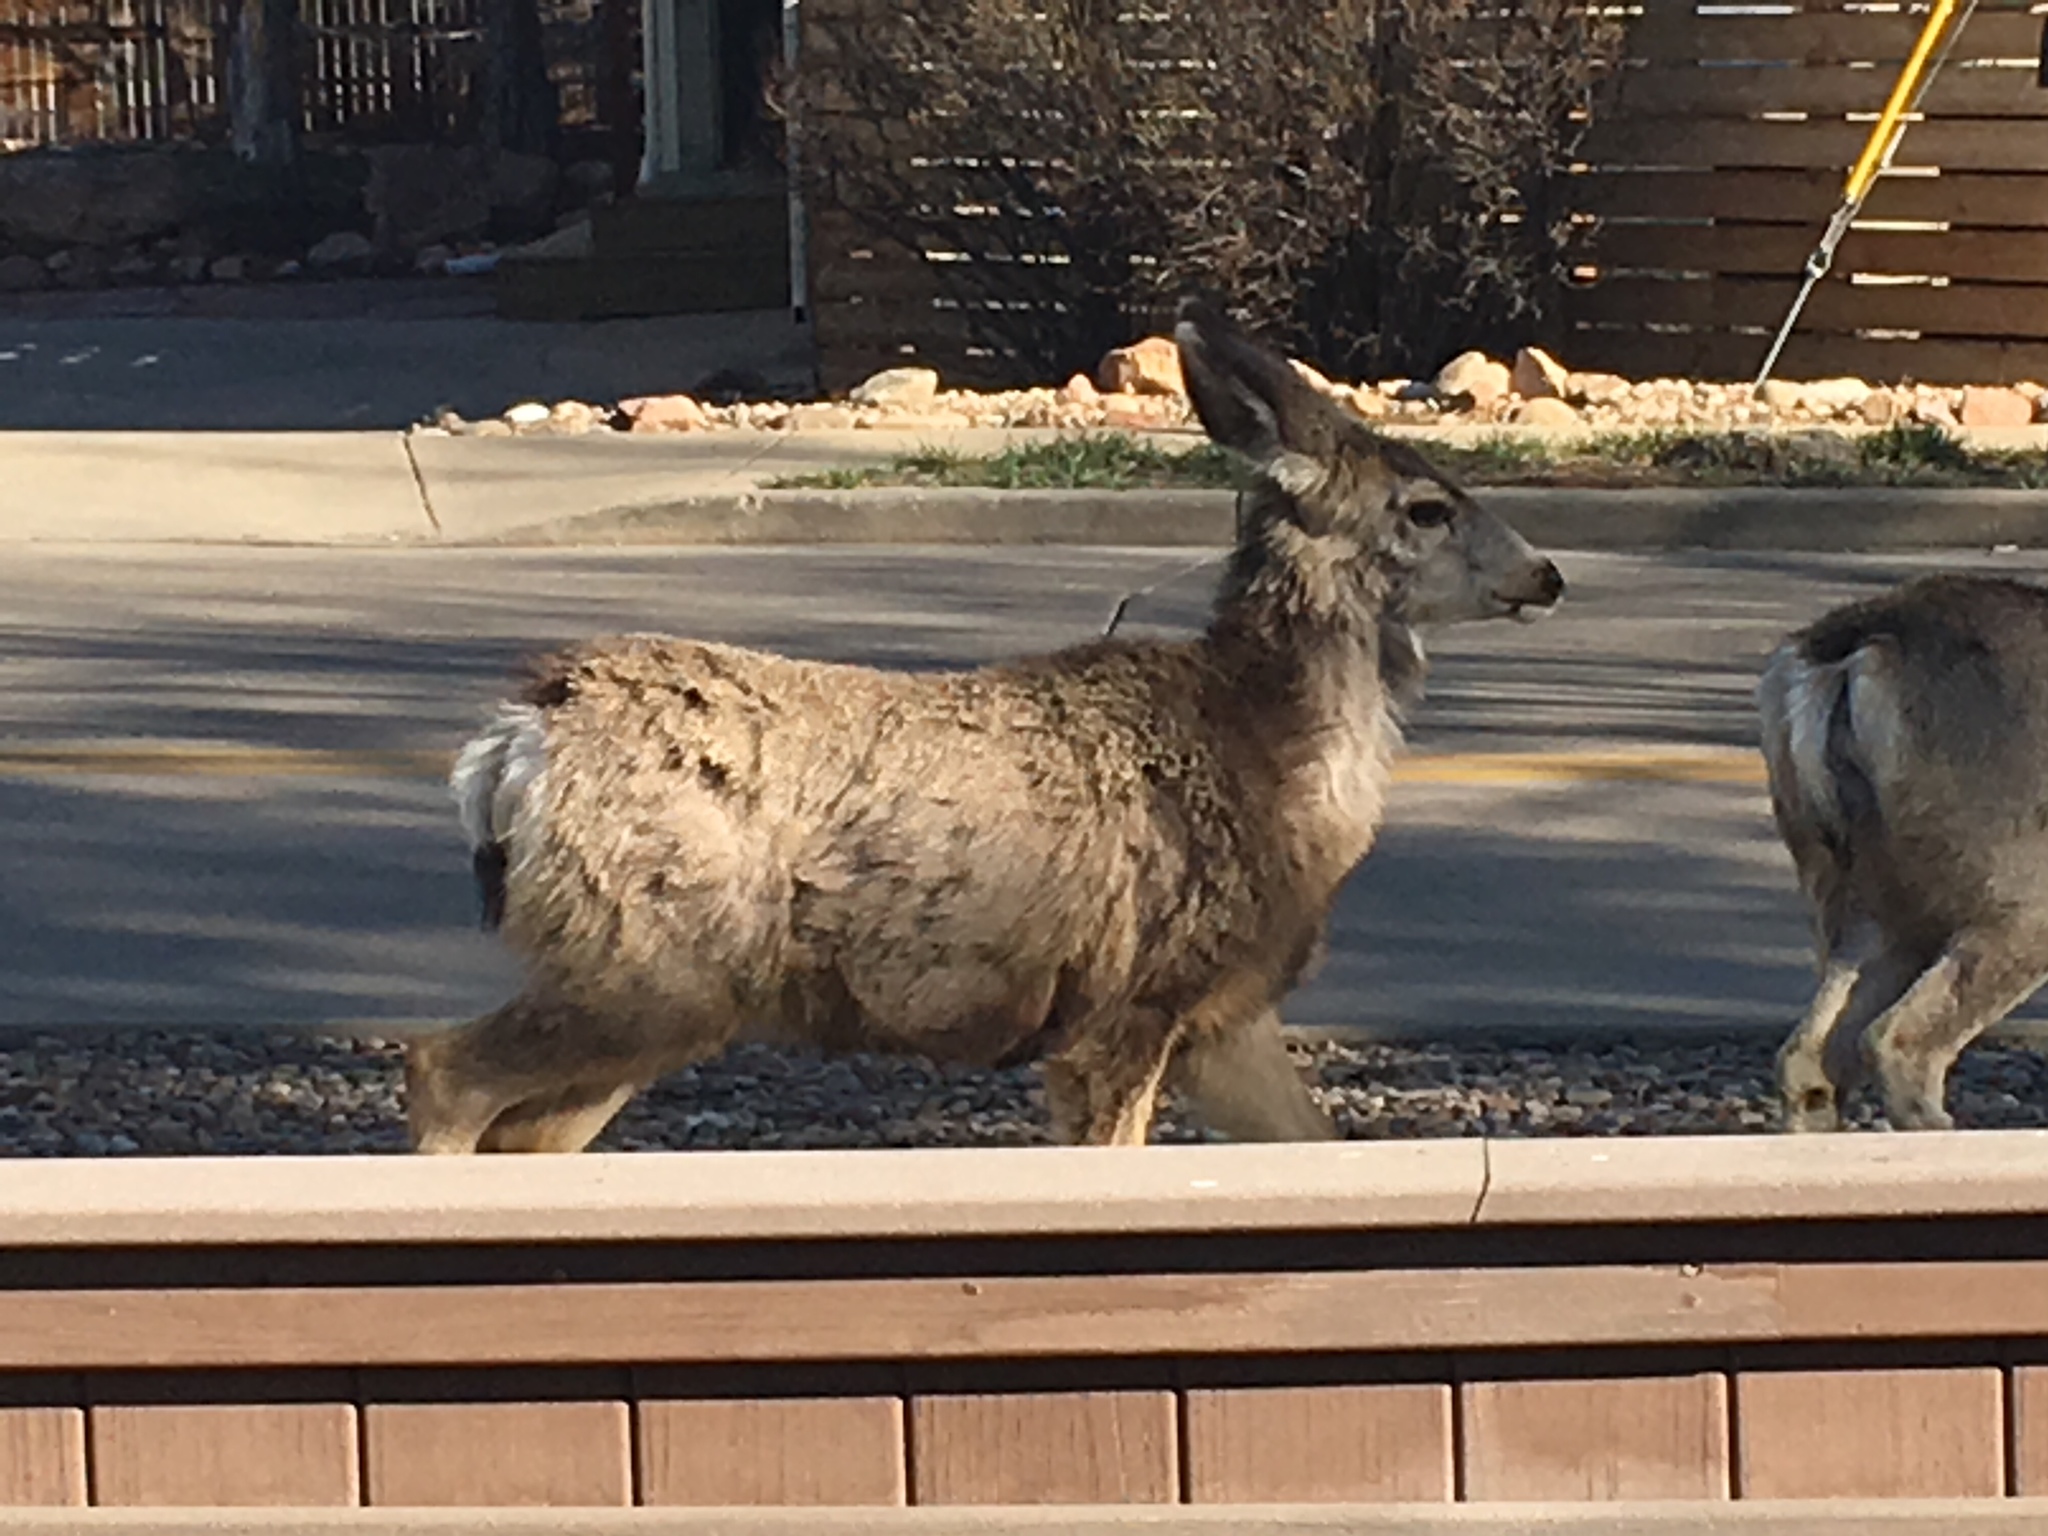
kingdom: Animalia
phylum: Chordata
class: Mammalia
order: Artiodactyla
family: Cervidae
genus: Odocoileus
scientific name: Odocoileus hemionus
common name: Mule deer
